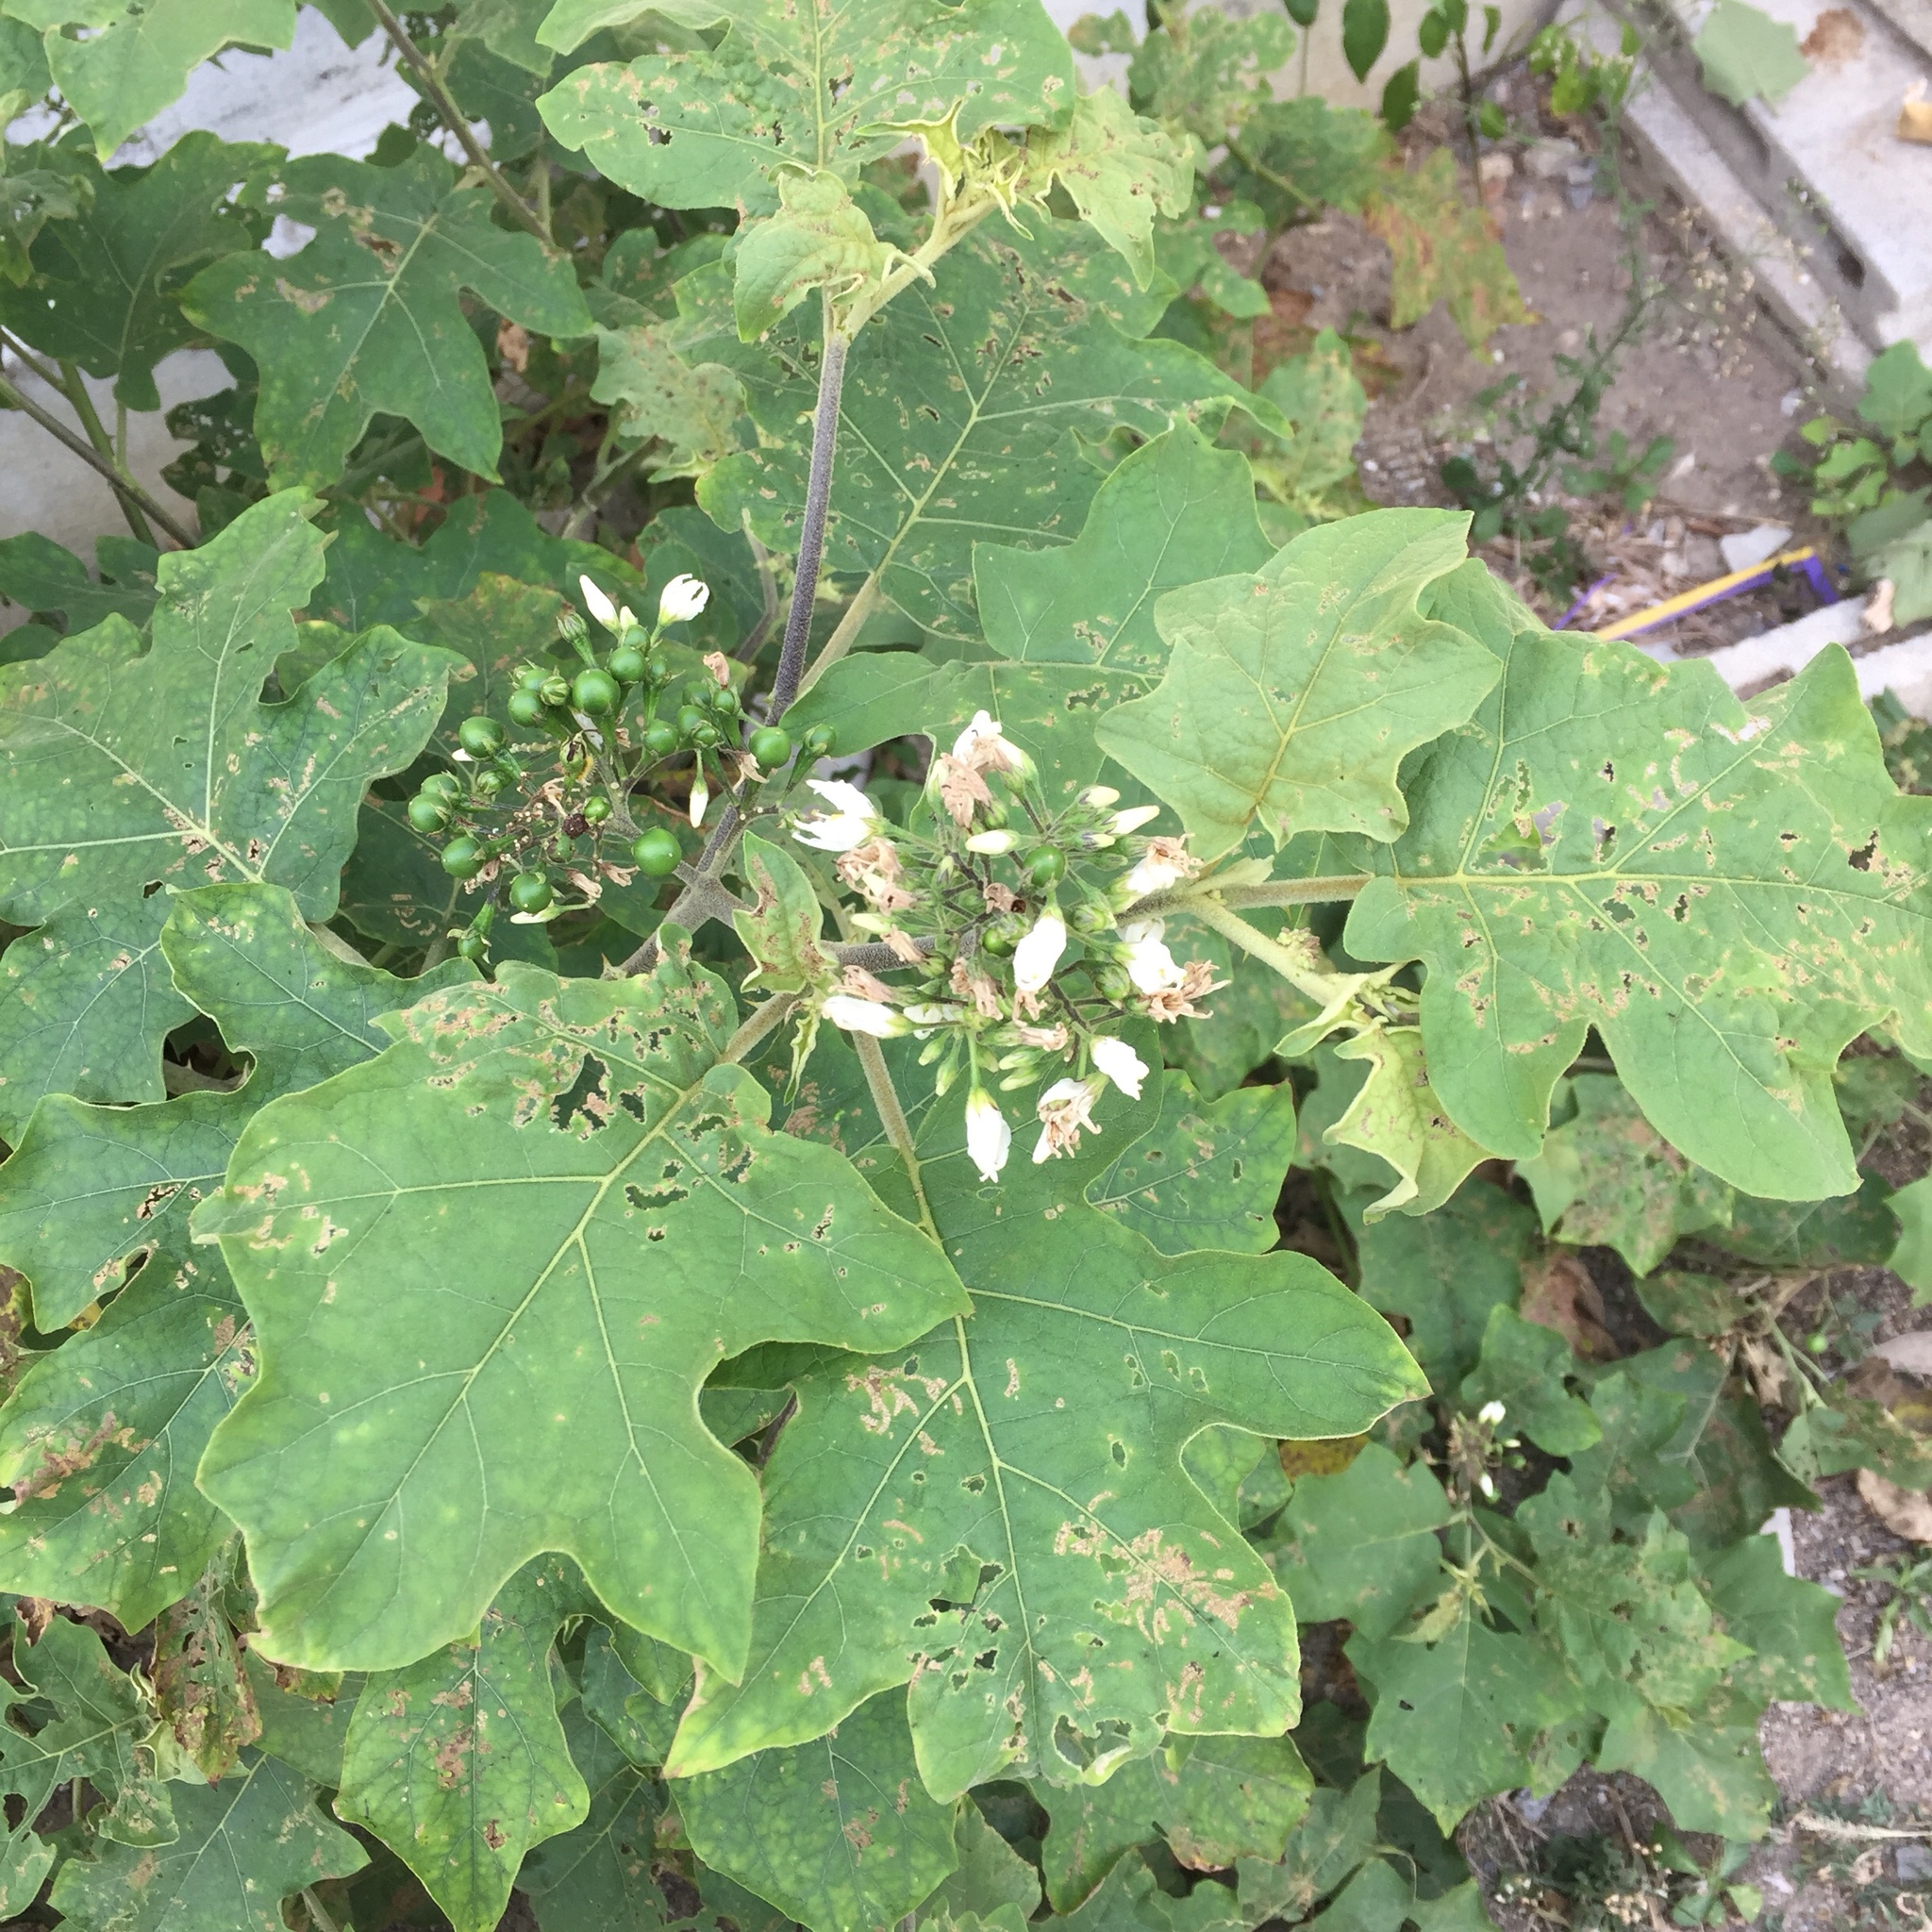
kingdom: Plantae
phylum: Tracheophyta
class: Magnoliopsida
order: Solanales
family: Solanaceae
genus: Solanum
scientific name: Solanum torvum
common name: Turkey berry
